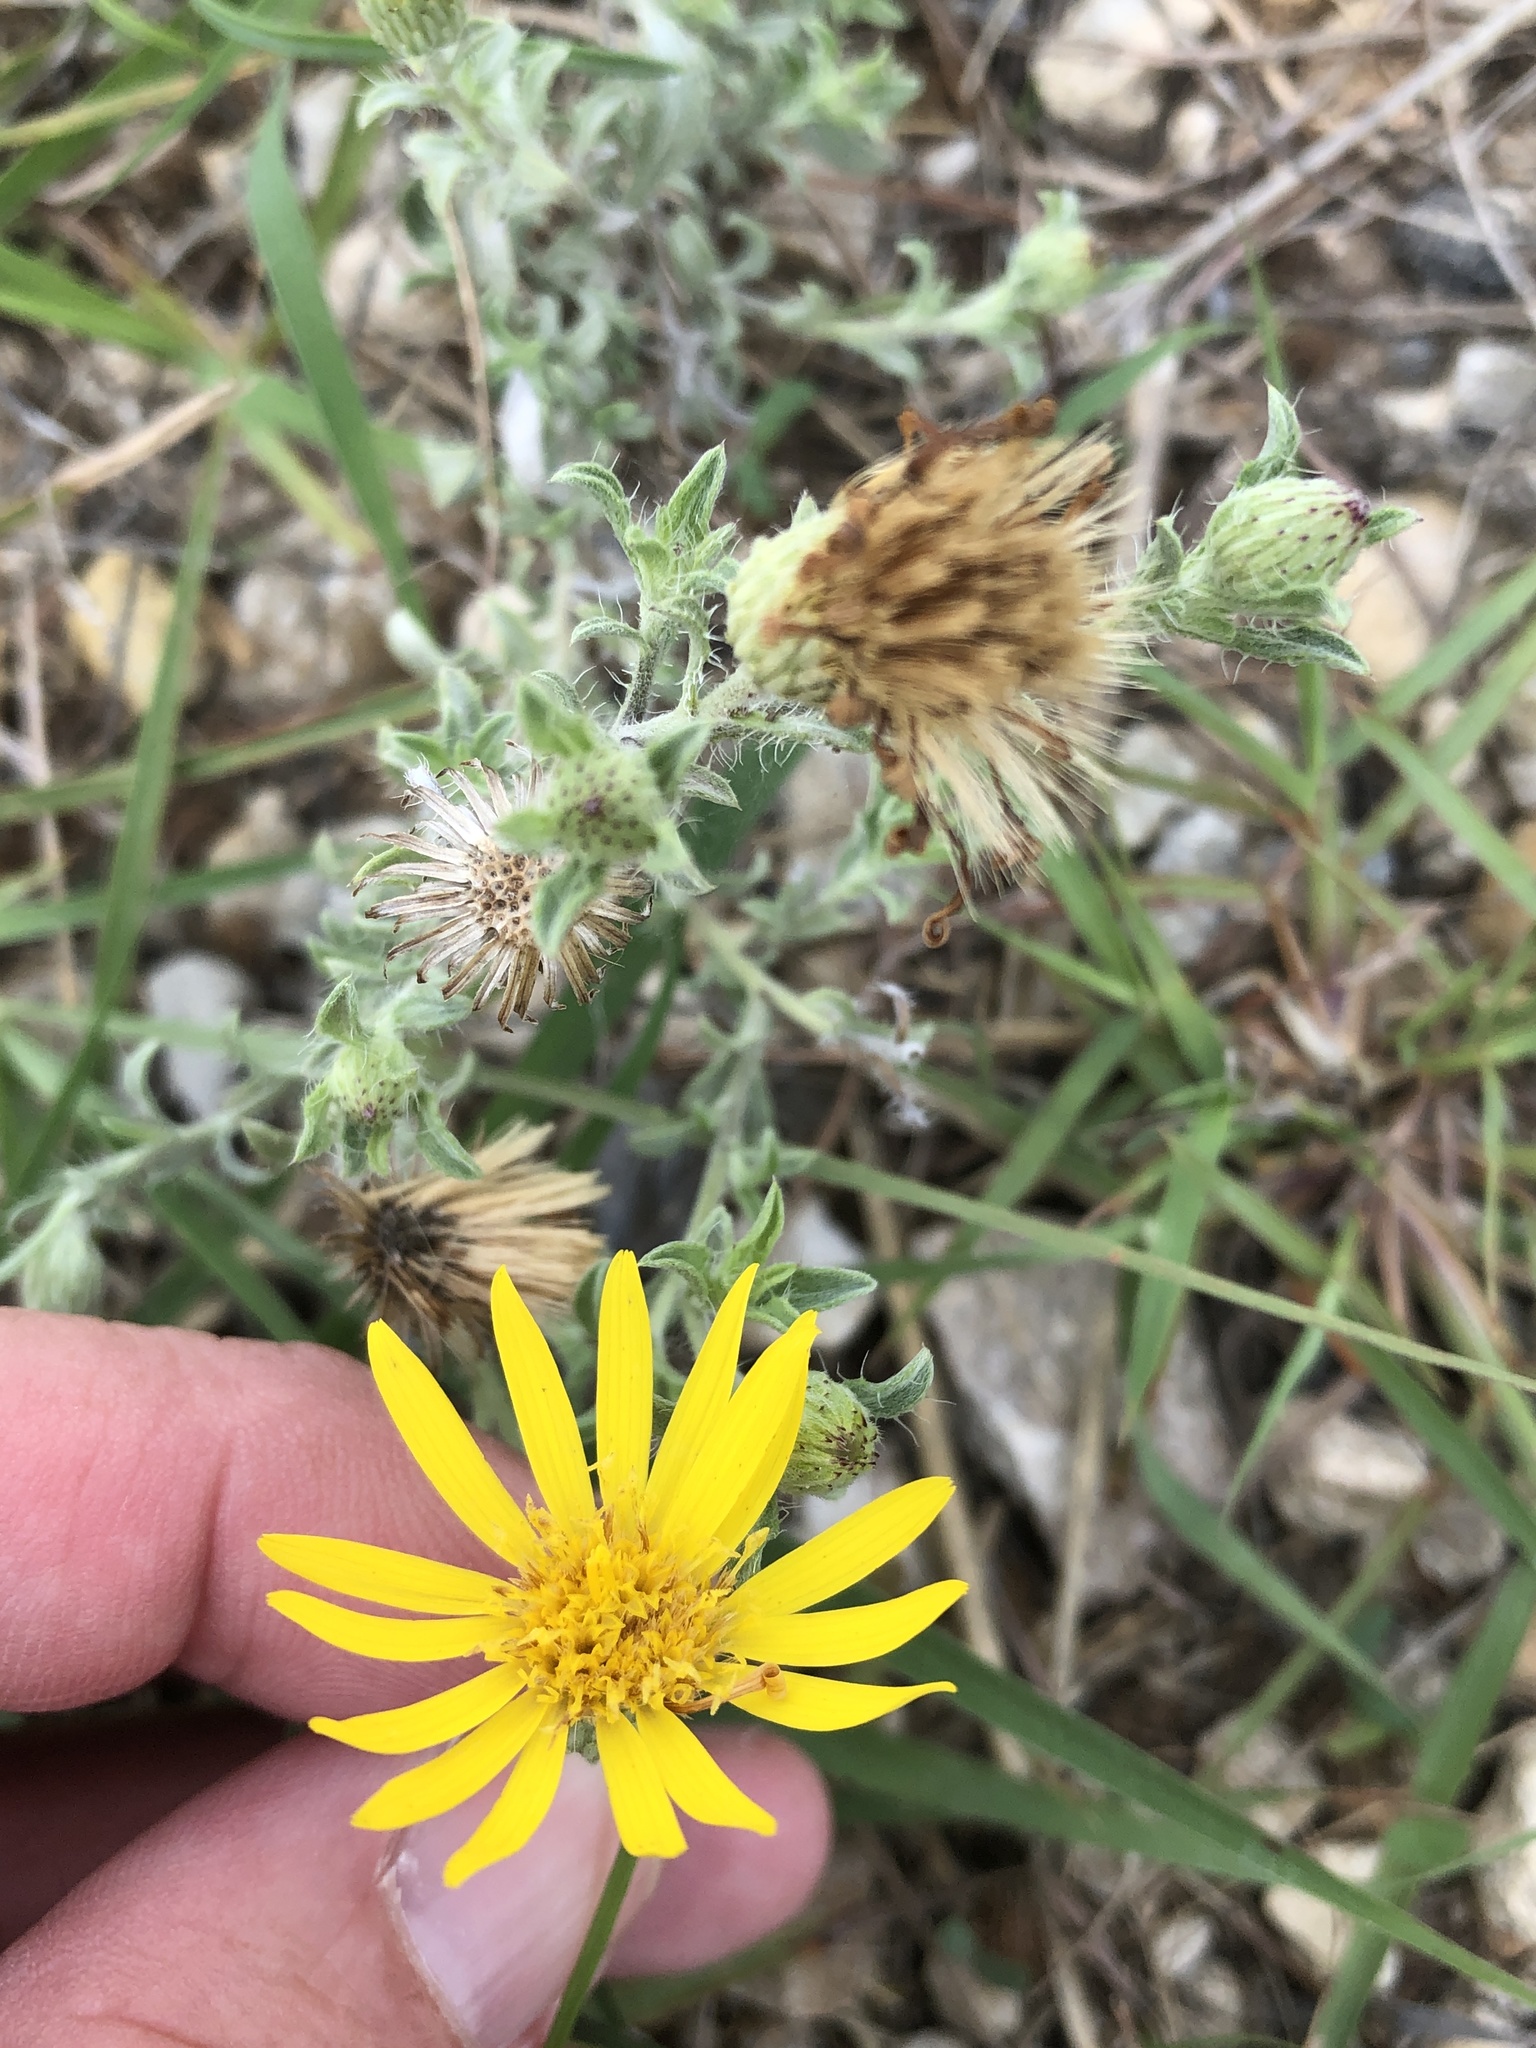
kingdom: Plantae
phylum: Tracheophyta
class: Magnoliopsida
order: Asterales
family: Asteraceae
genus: Heterotheca
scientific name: Heterotheca canescens
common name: Hoary golden-aster
